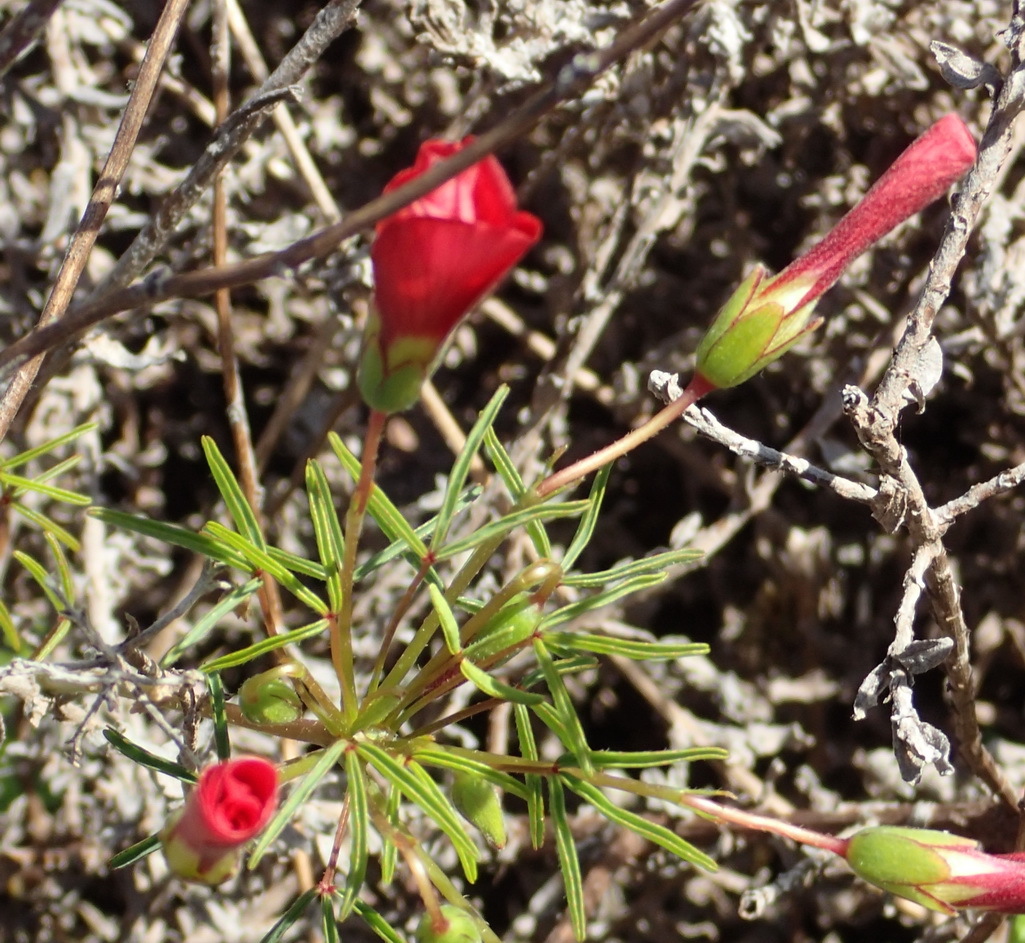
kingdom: Plantae
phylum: Tracheophyta
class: Magnoliopsida
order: Oxalidales
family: Oxalidaceae
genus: Oxalis
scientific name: Oxalis pendulifolia
